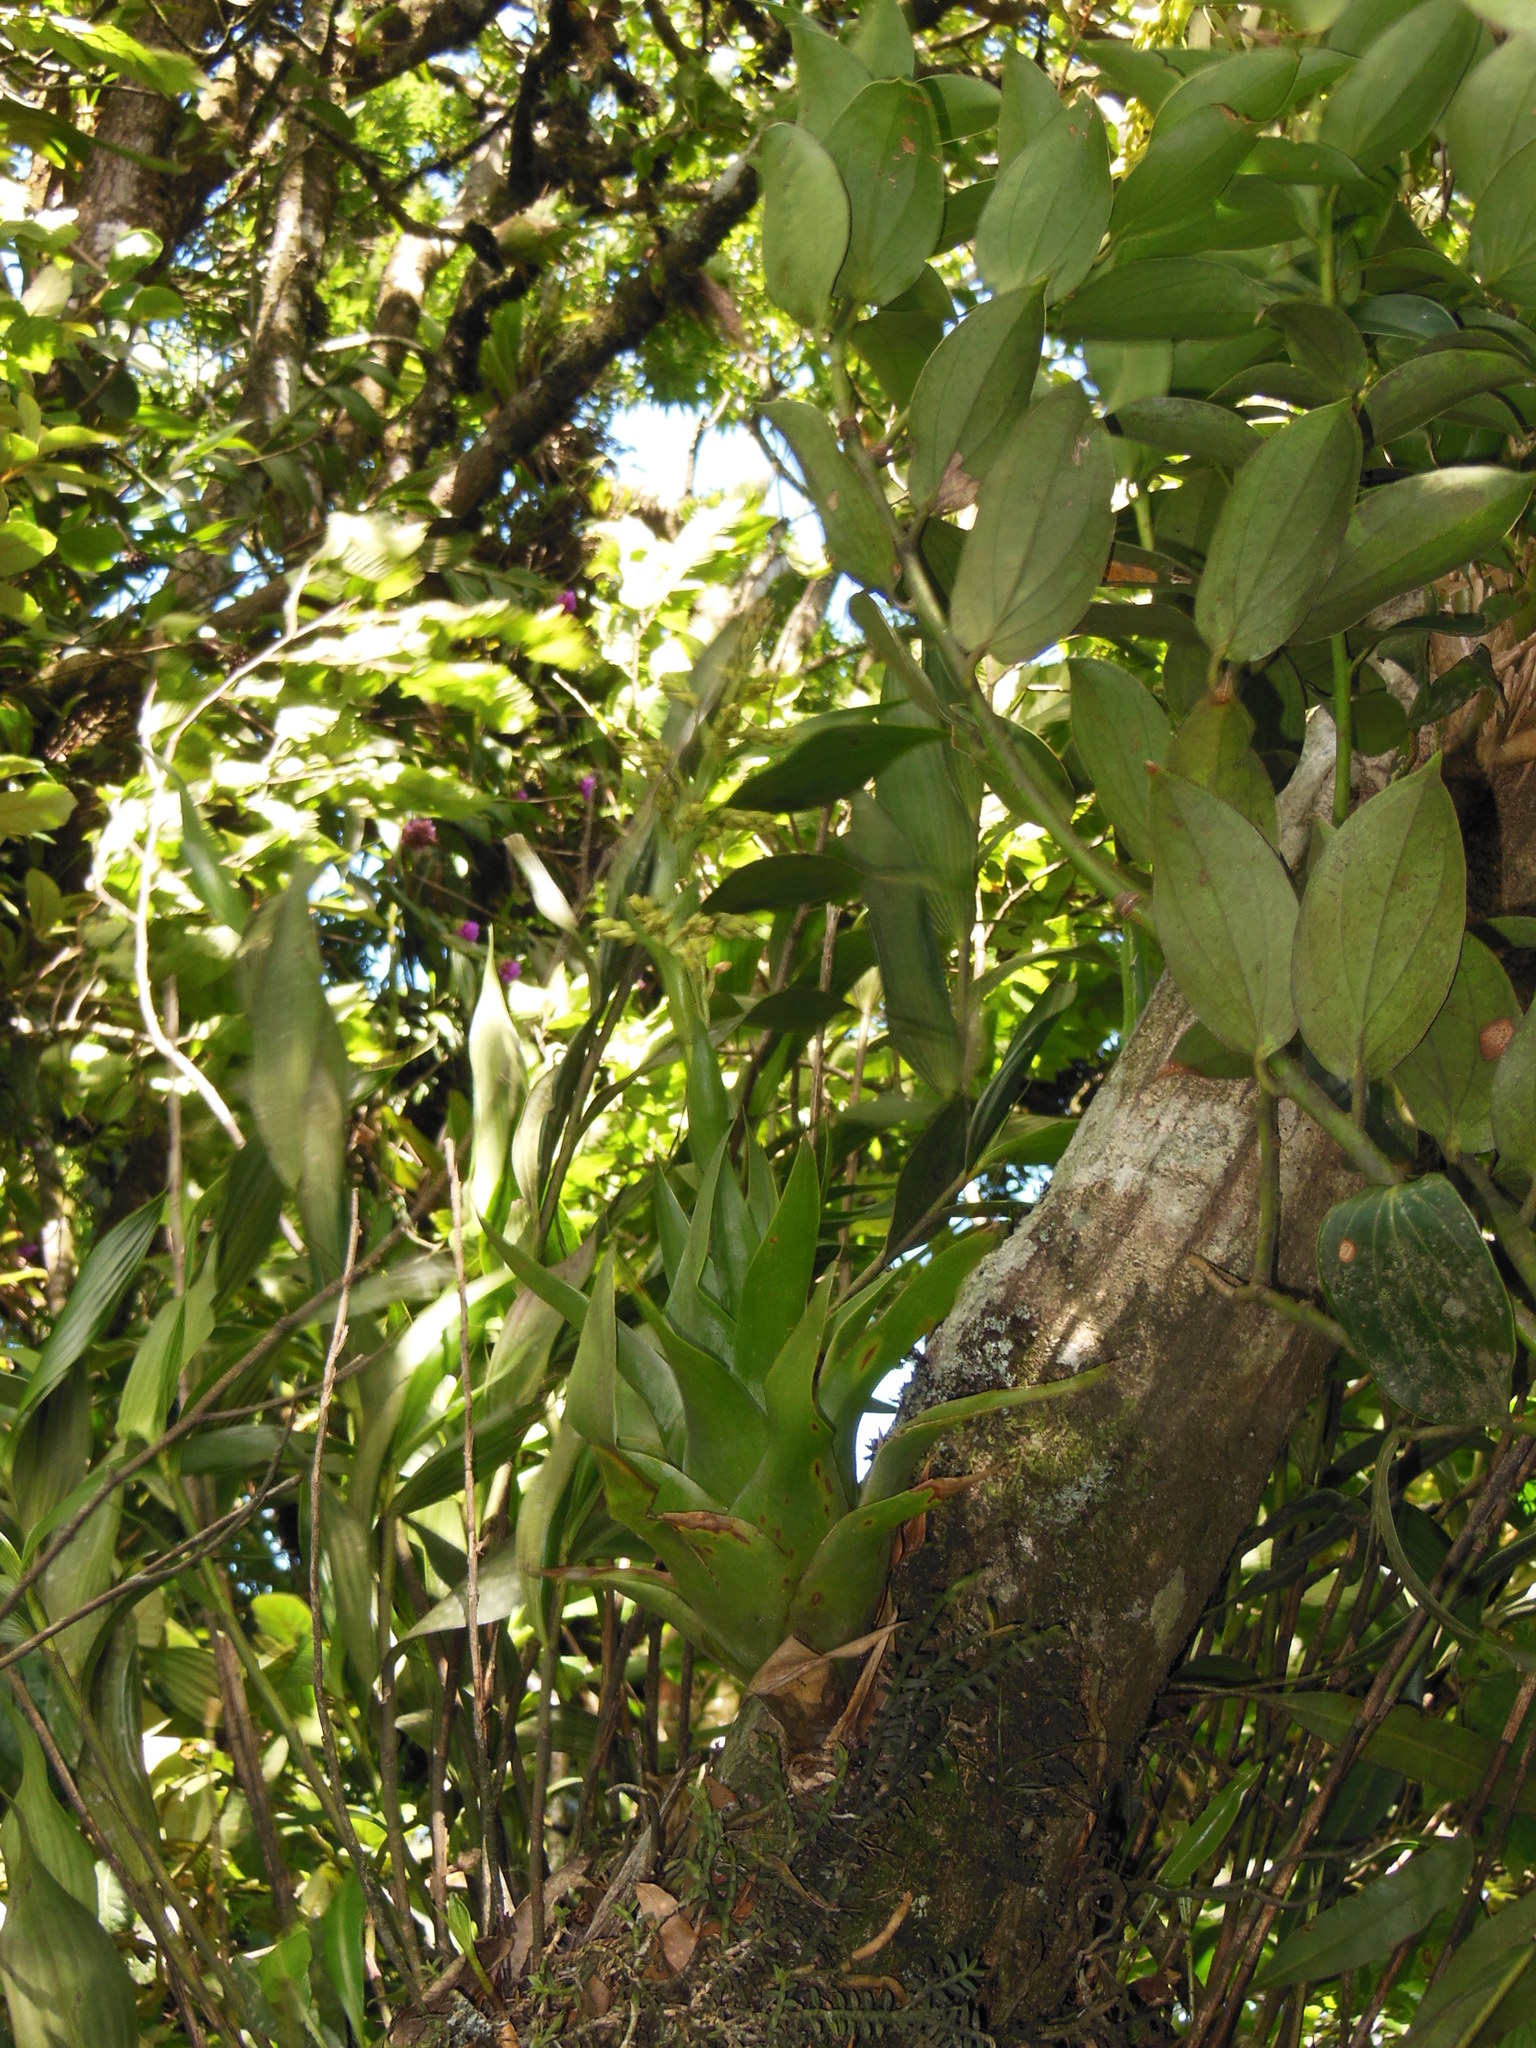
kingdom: Plantae
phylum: Tracheophyta
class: Liliopsida
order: Poales
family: Bromeliaceae
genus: Catopsis
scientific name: Catopsis berteroniana
